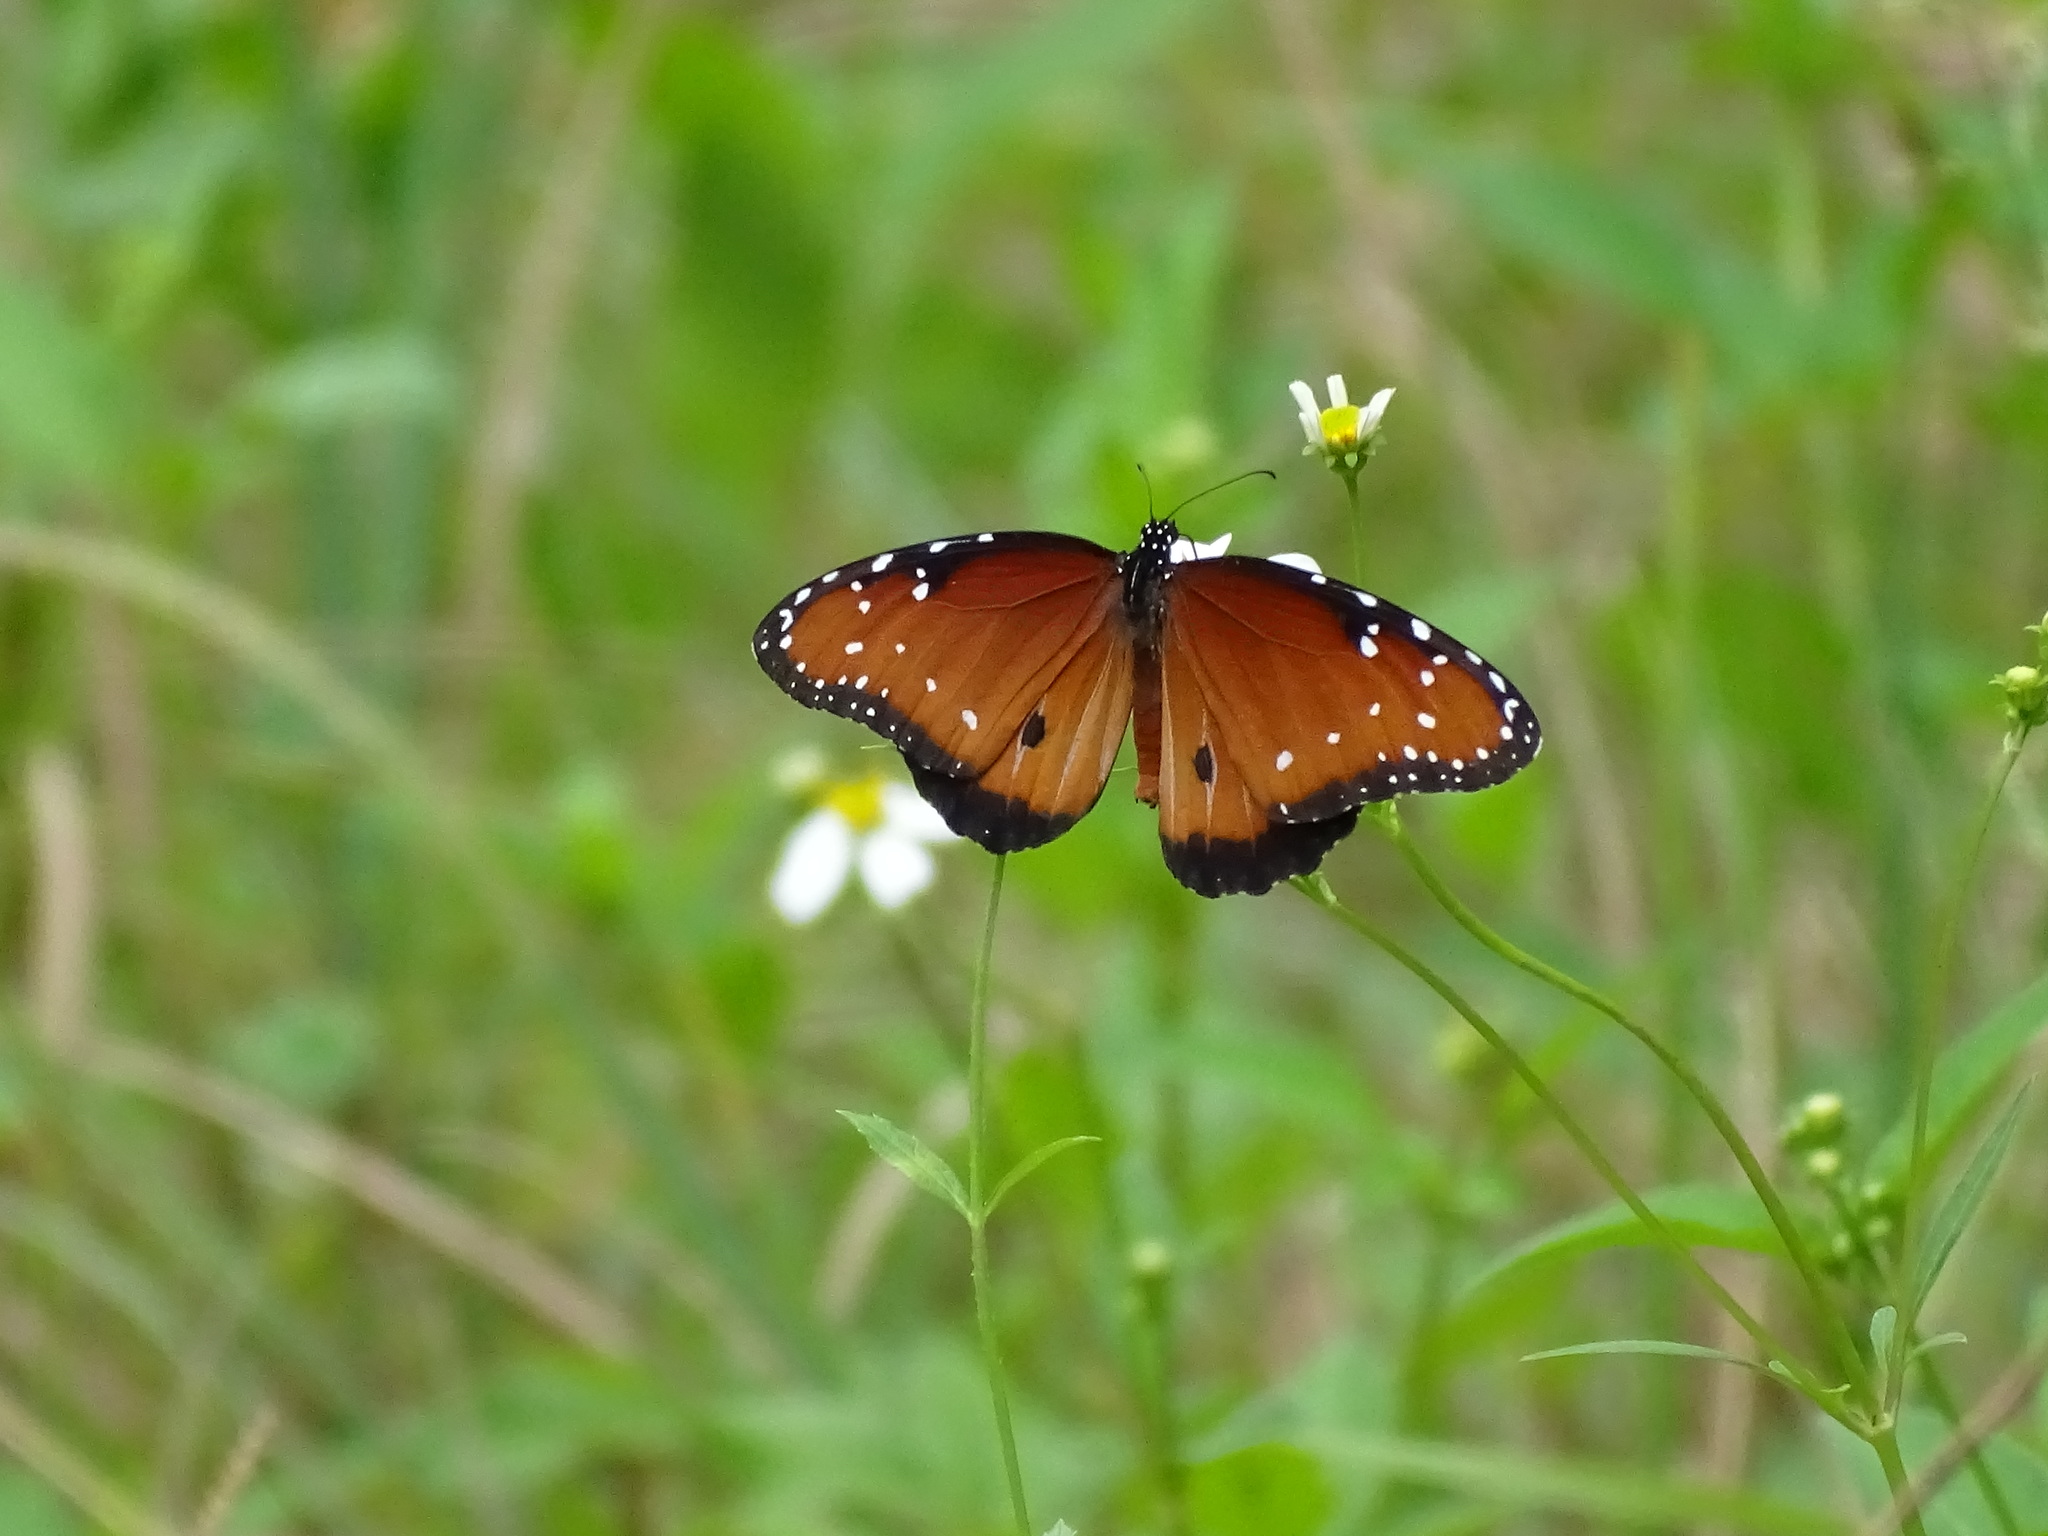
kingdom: Animalia
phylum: Arthropoda
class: Insecta
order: Lepidoptera
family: Nymphalidae
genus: Danaus
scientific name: Danaus gilippus
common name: Queen
